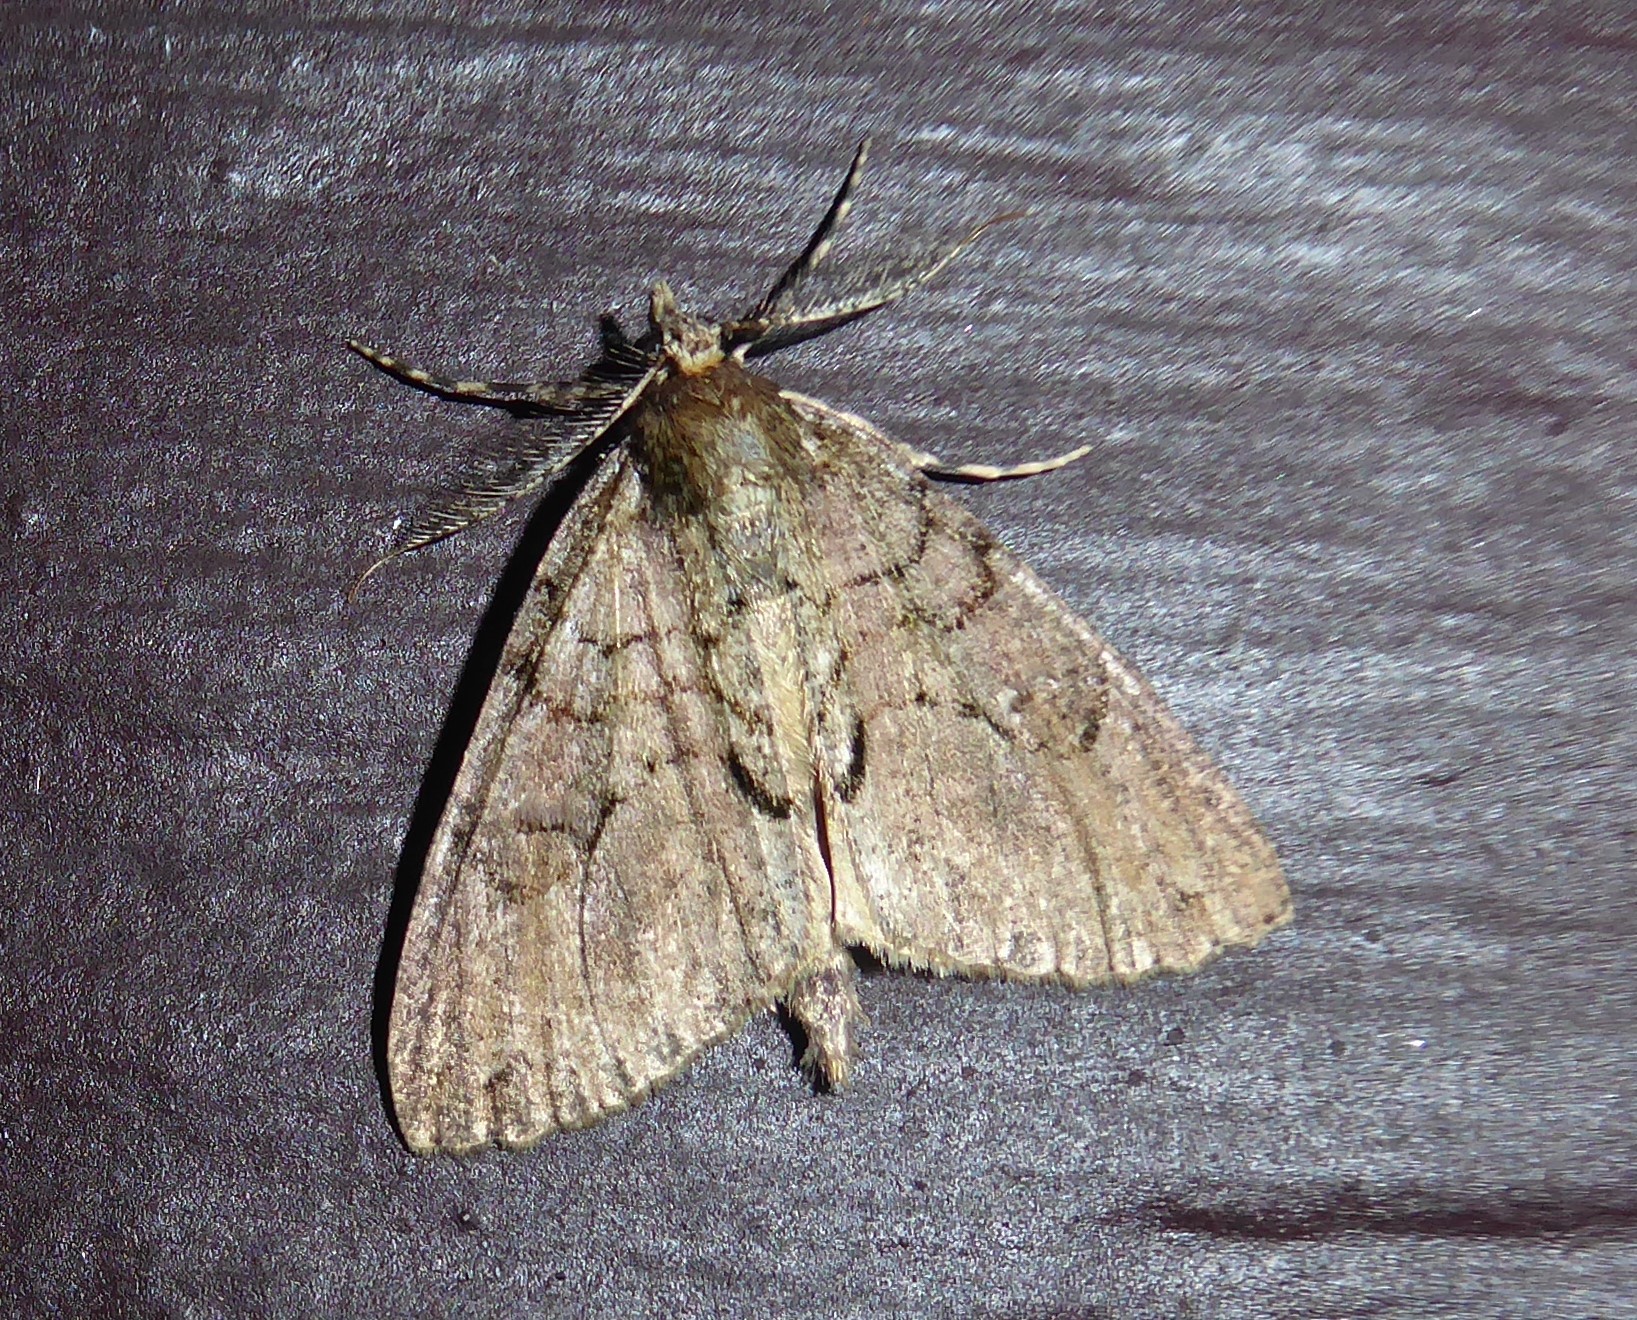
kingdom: Animalia
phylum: Arthropoda
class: Insecta
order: Lepidoptera
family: Geometridae
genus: Pseudocoremia
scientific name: Pseudocoremia suavis
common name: Common forest looper
